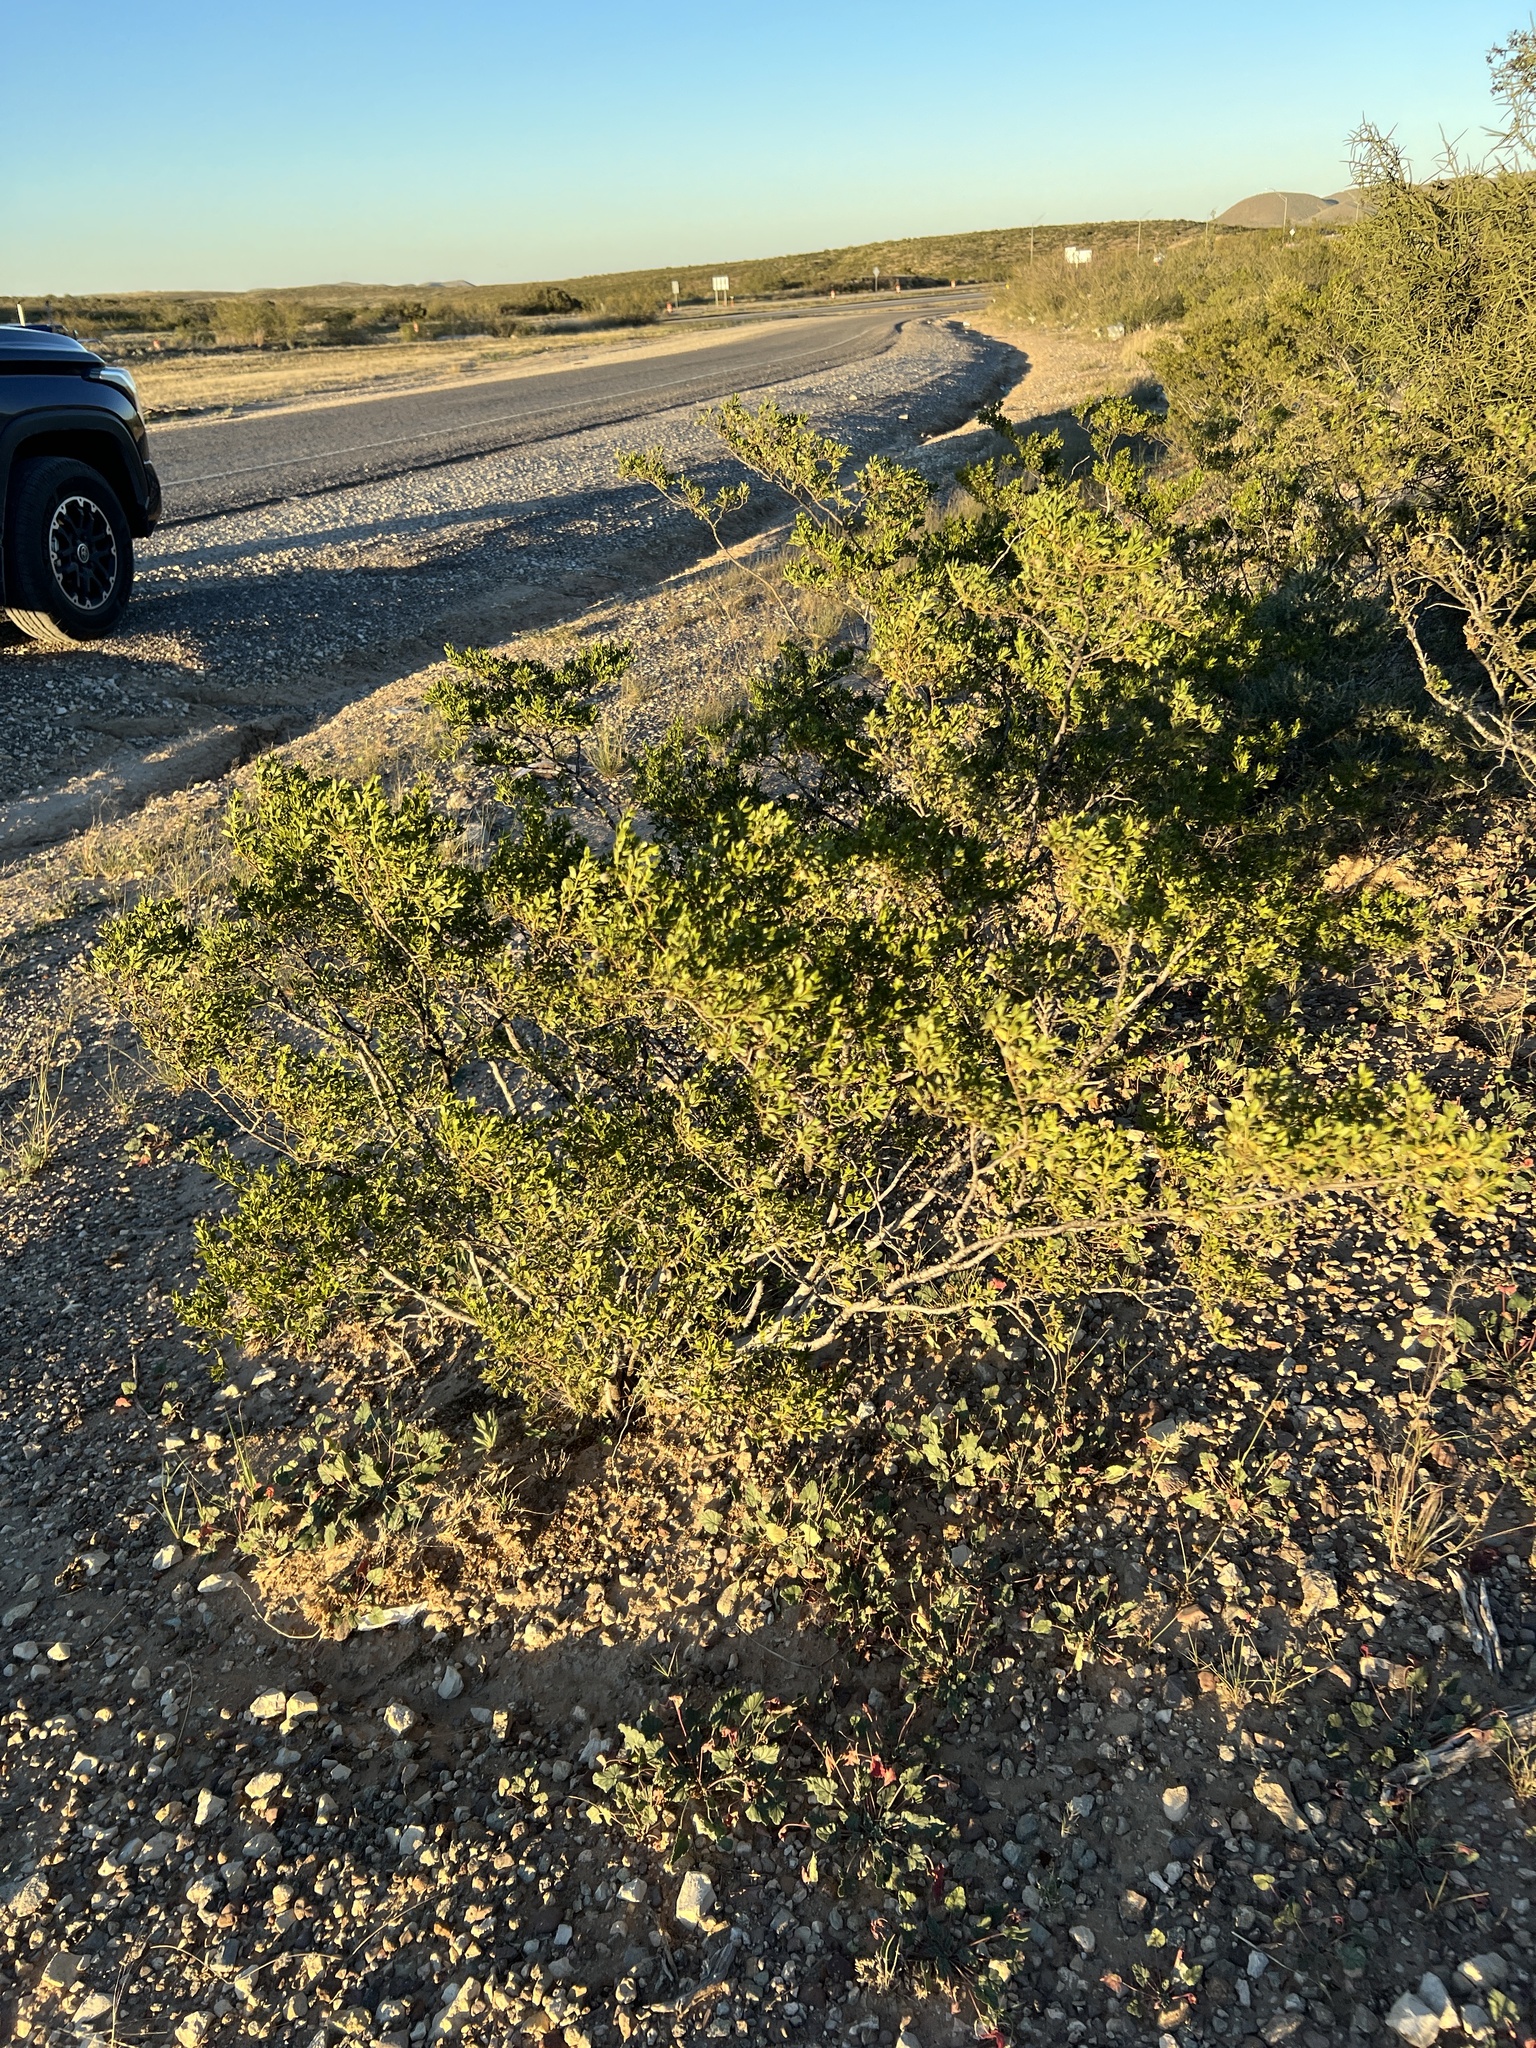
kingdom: Plantae
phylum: Tracheophyta
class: Magnoliopsida
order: Zygophyllales
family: Zygophyllaceae
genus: Larrea
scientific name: Larrea tridentata
